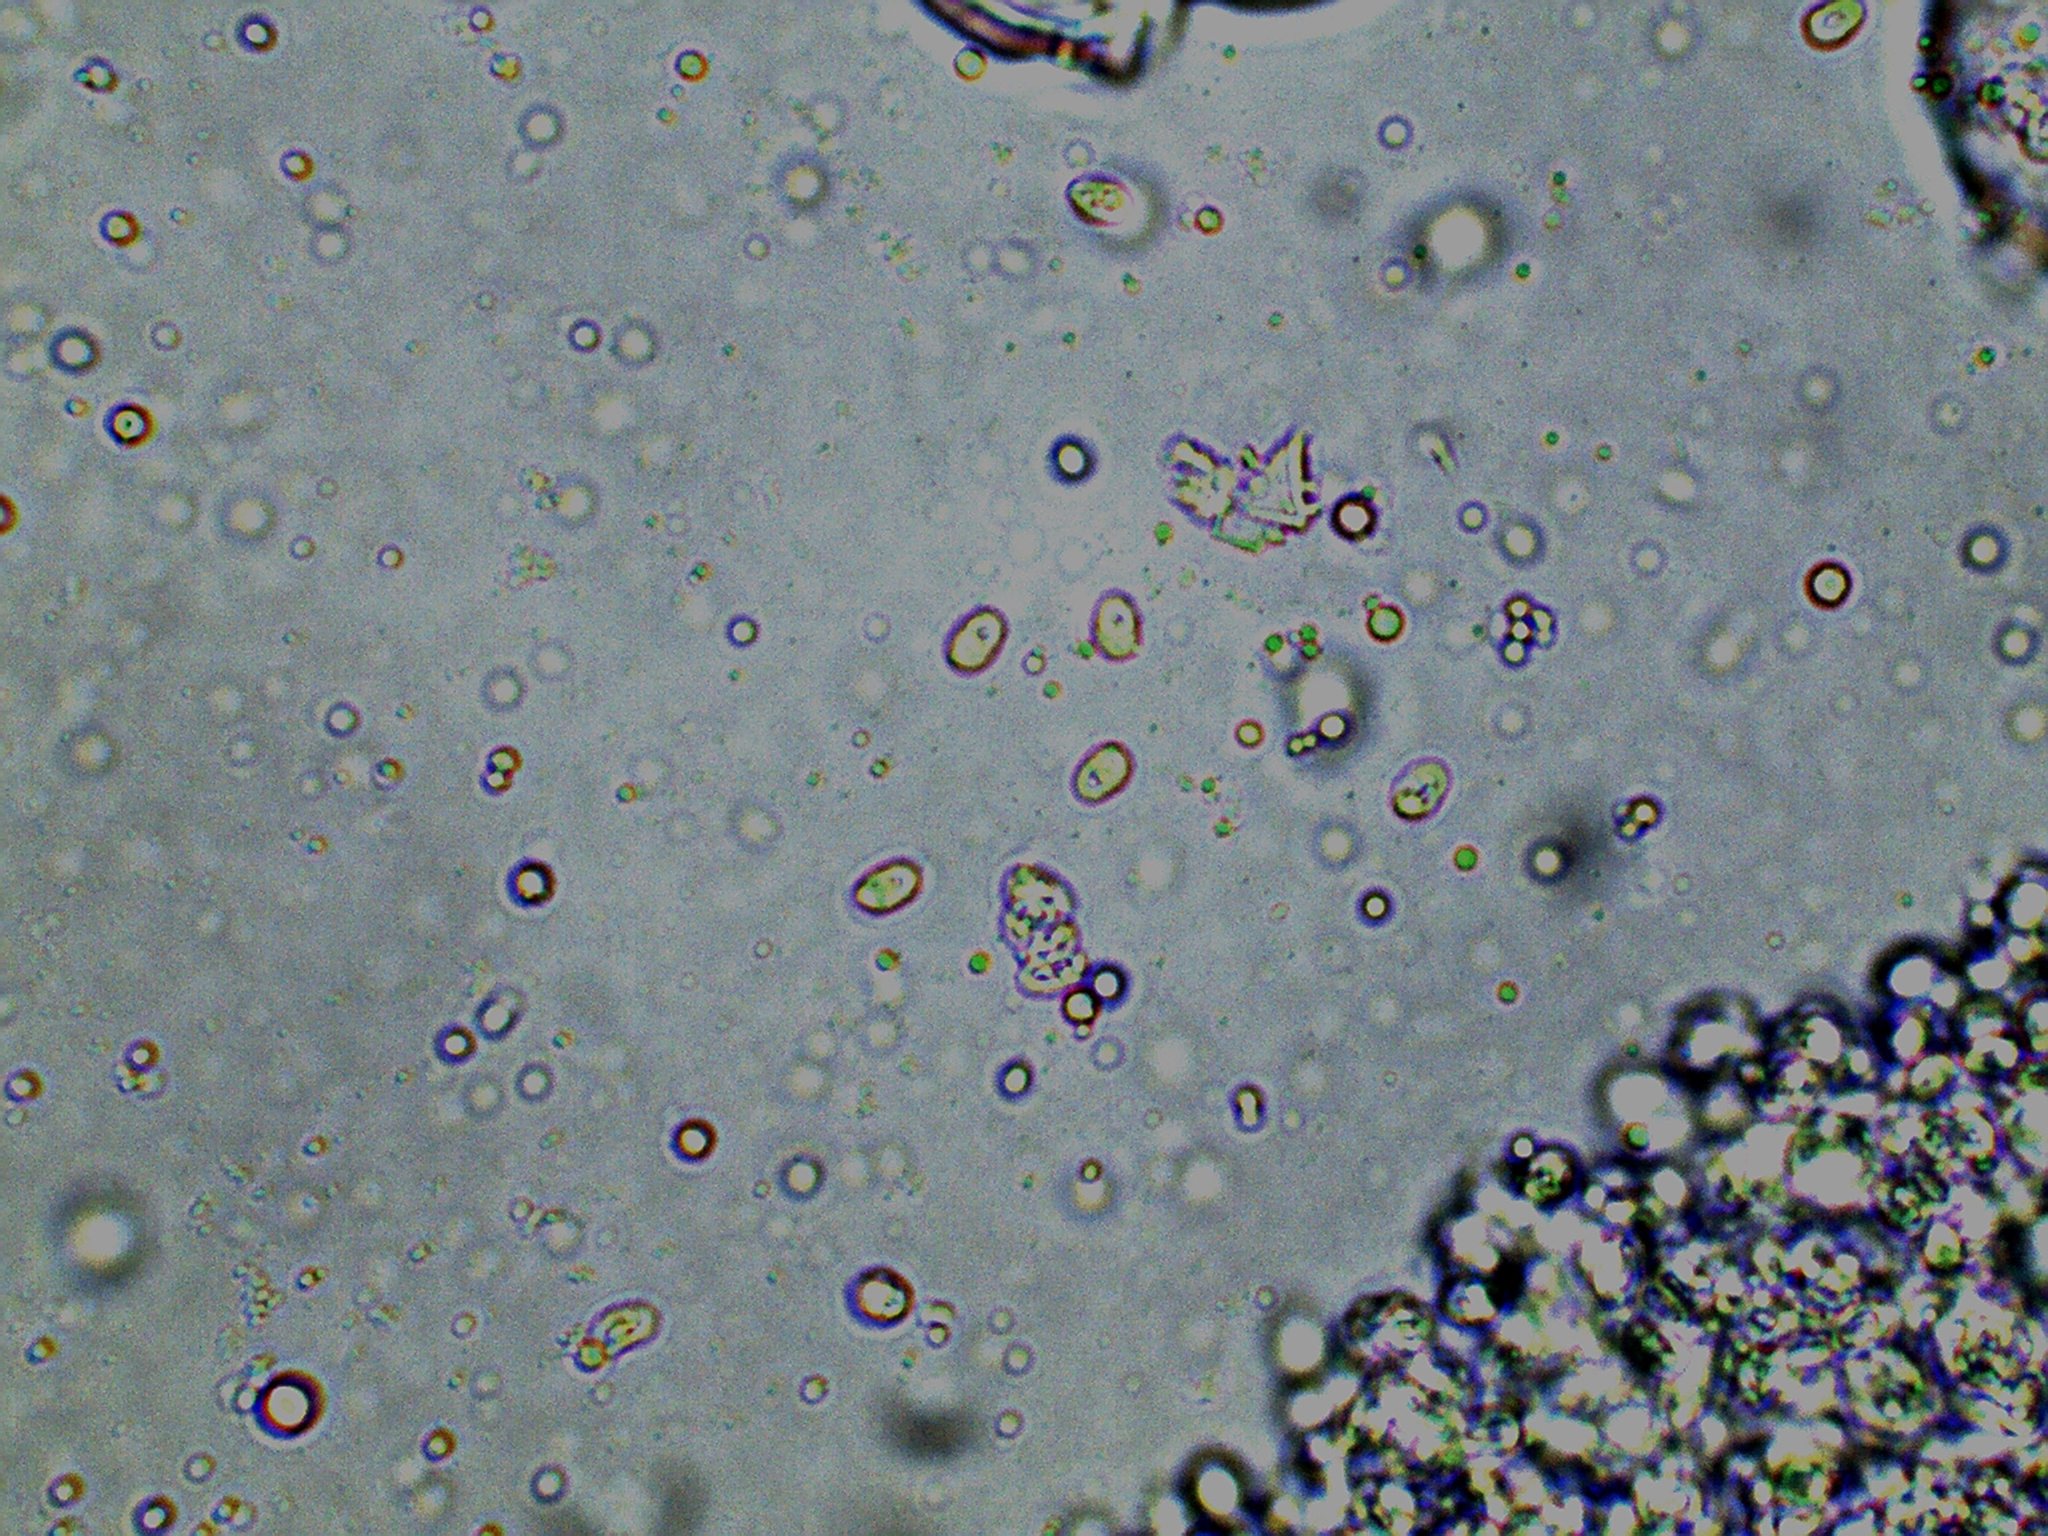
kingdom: Fungi
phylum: Basidiomycota
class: Agaricomycetes
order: Agaricales
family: Agaricaceae
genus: Cystolepiota
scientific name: Cystolepiota seminuda
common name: Bearded dapperling
